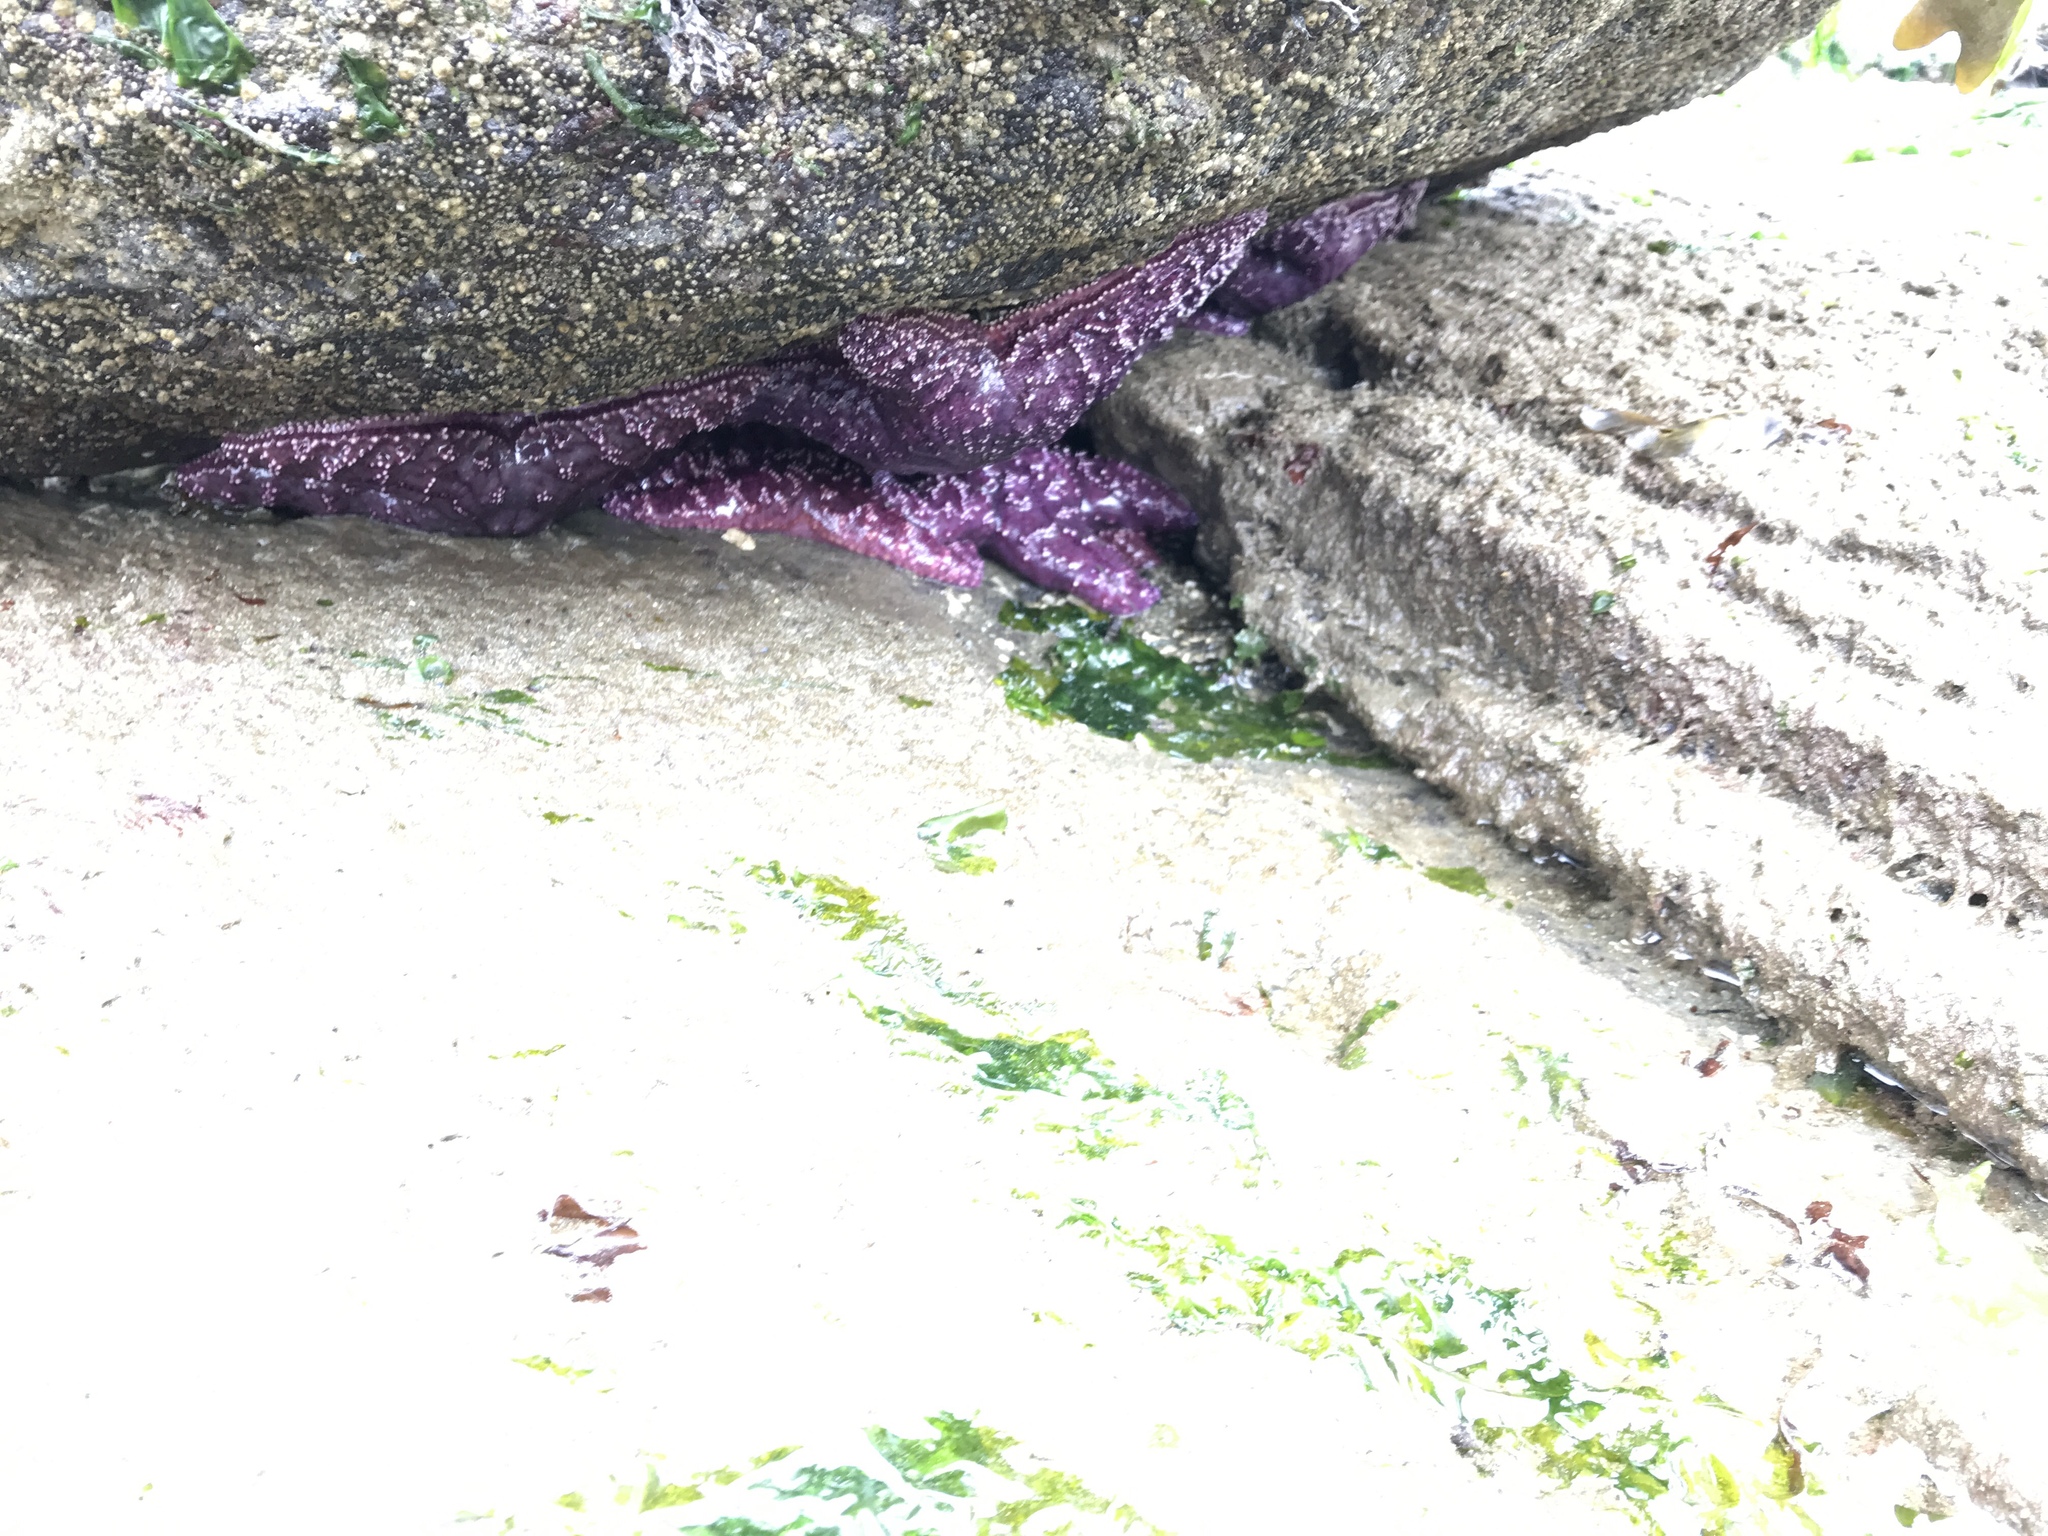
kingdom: Animalia
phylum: Echinodermata
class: Asteroidea
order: Forcipulatida
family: Asteriidae
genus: Pisaster
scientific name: Pisaster ochraceus
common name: Ochre stars
